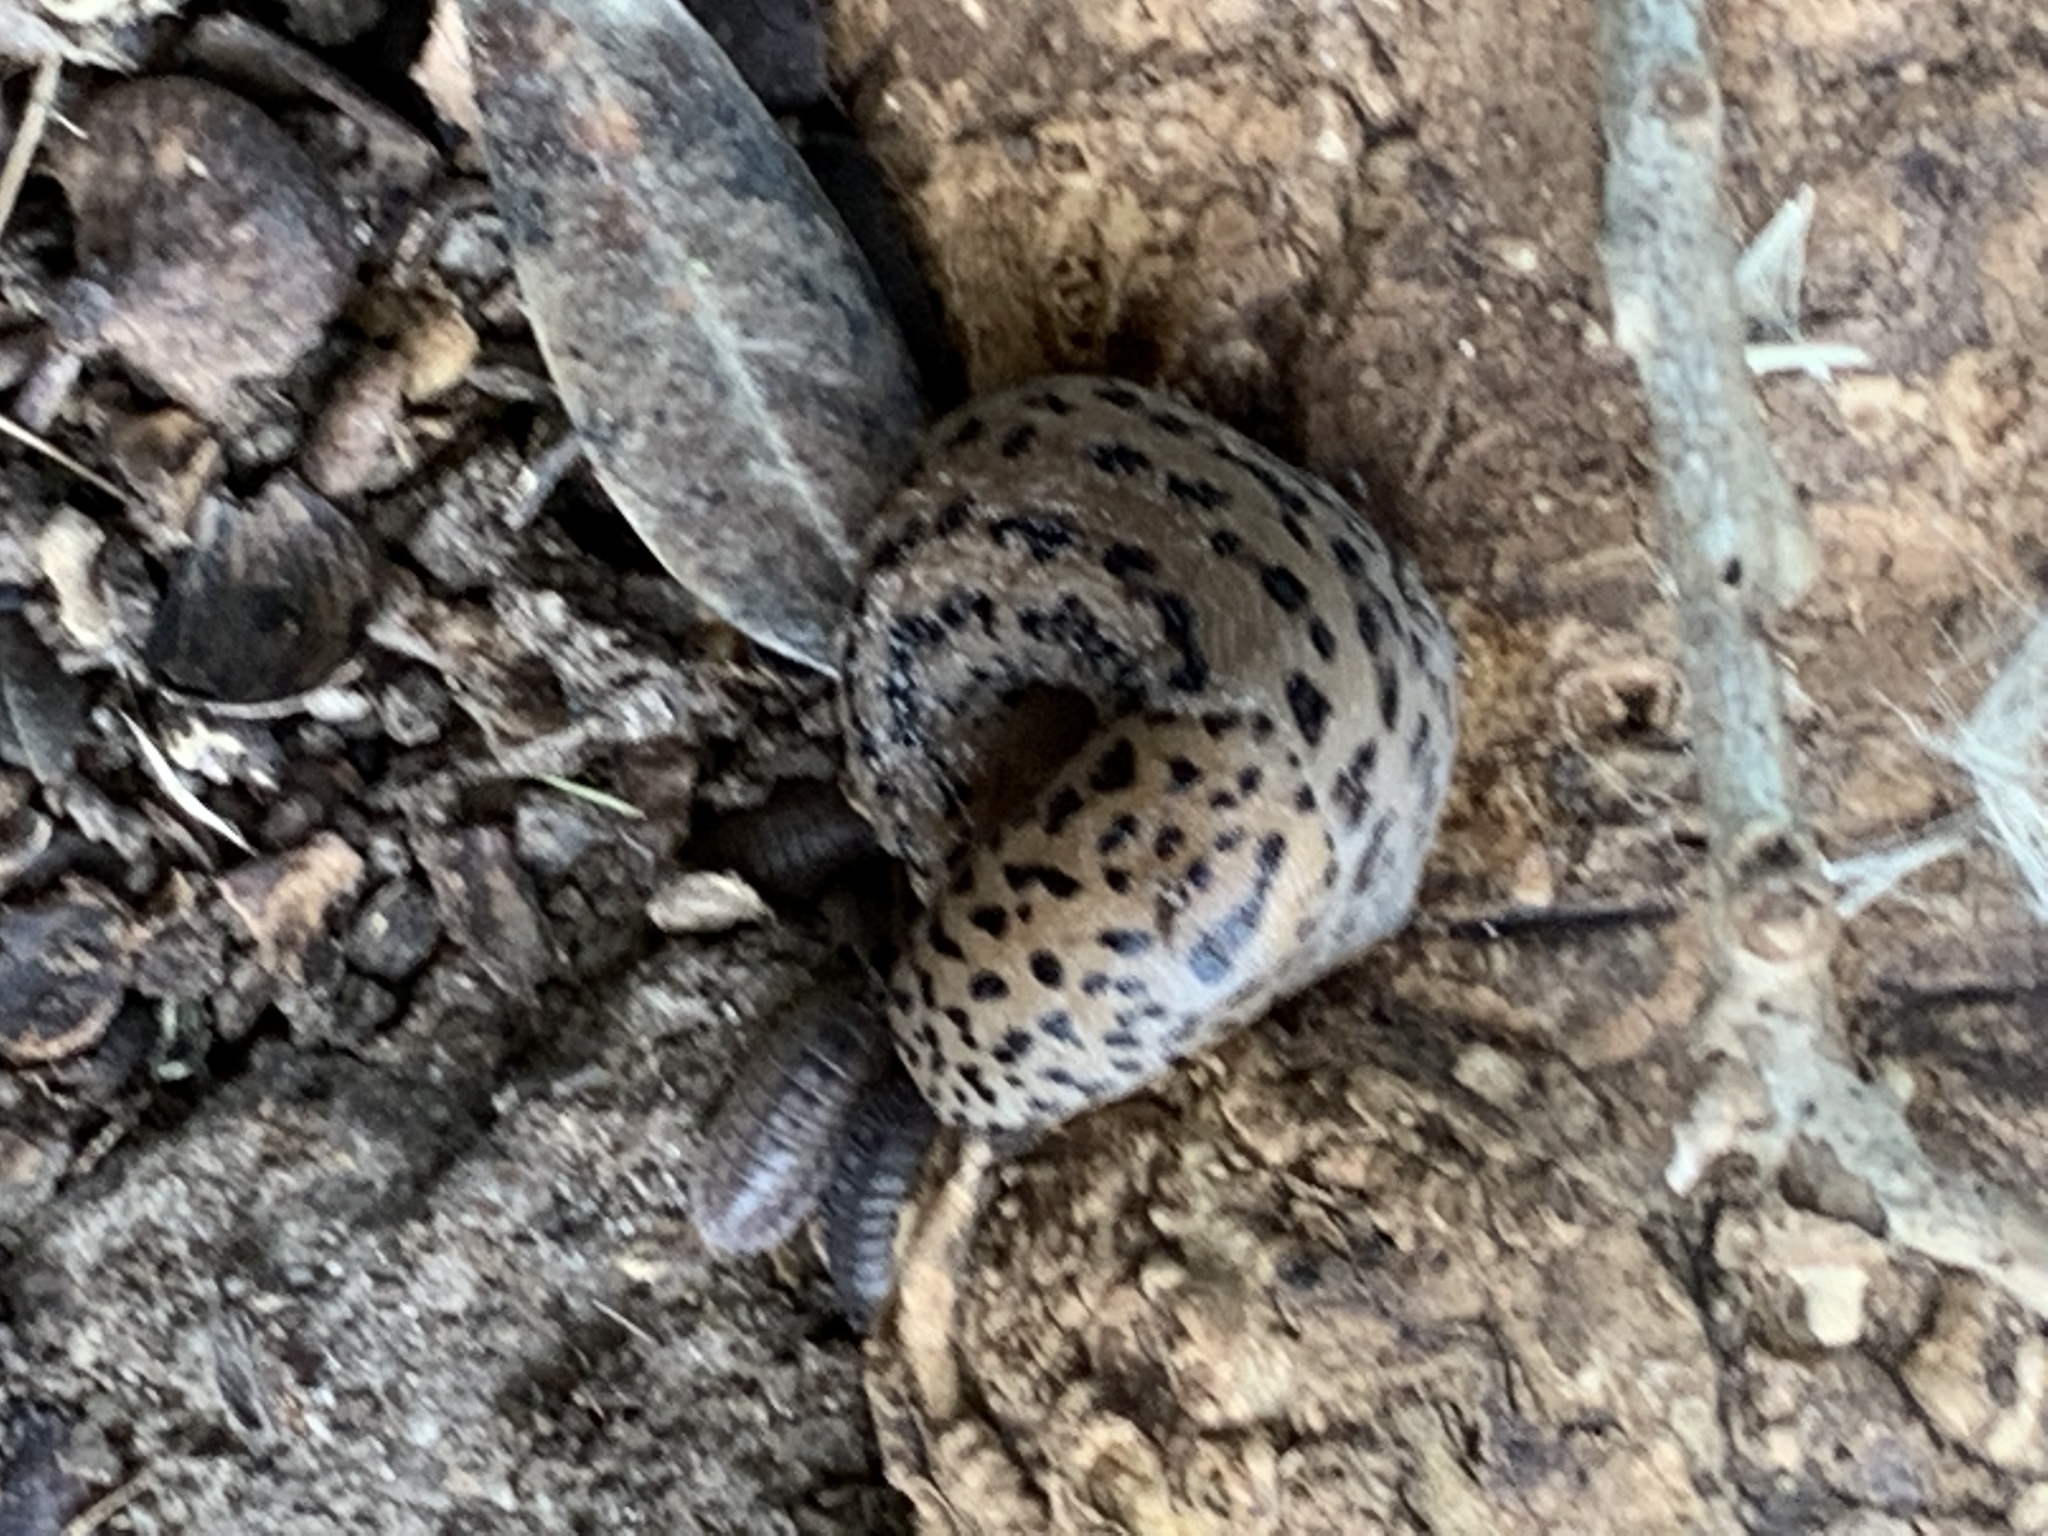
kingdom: Animalia
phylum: Mollusca
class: Gastropoda
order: Stylommatophora
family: Limacidae
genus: Limax
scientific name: Limax maximus
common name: Great grey slug
